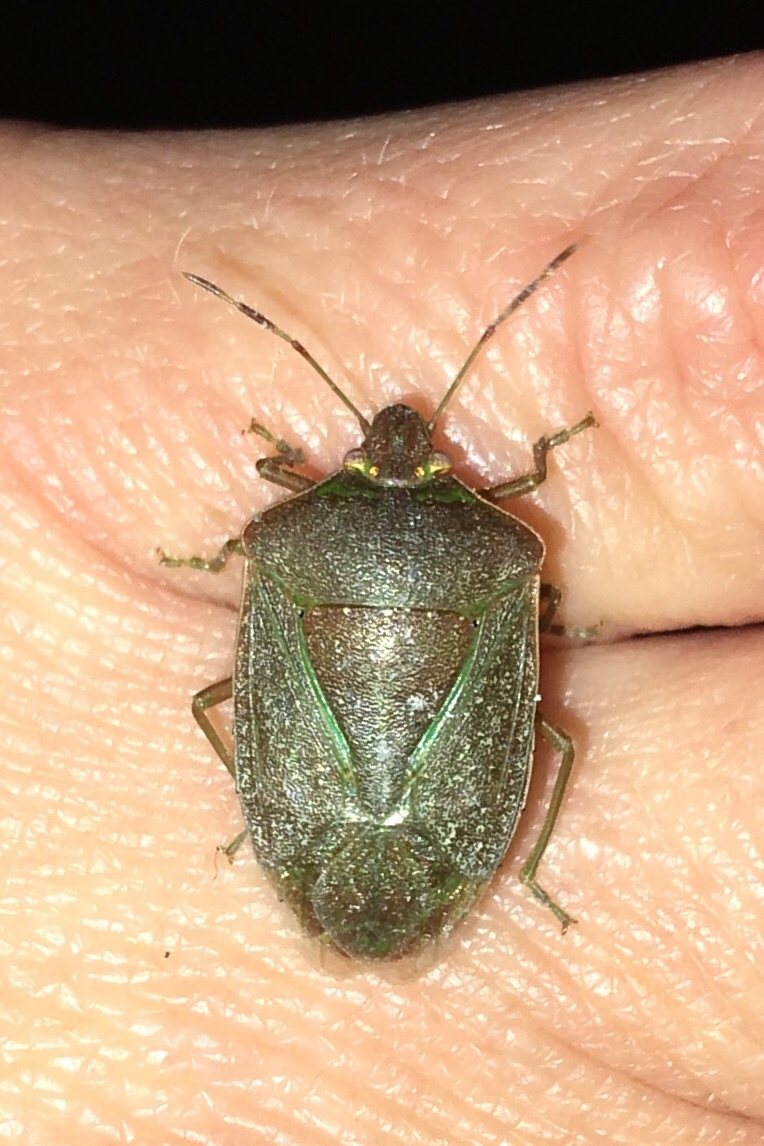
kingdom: Animalia
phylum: Arthropoda
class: Insecta
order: Hemiptera
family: Pentatomidae
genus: Nezara
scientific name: Nezara viridula
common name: Southern green stink bug
